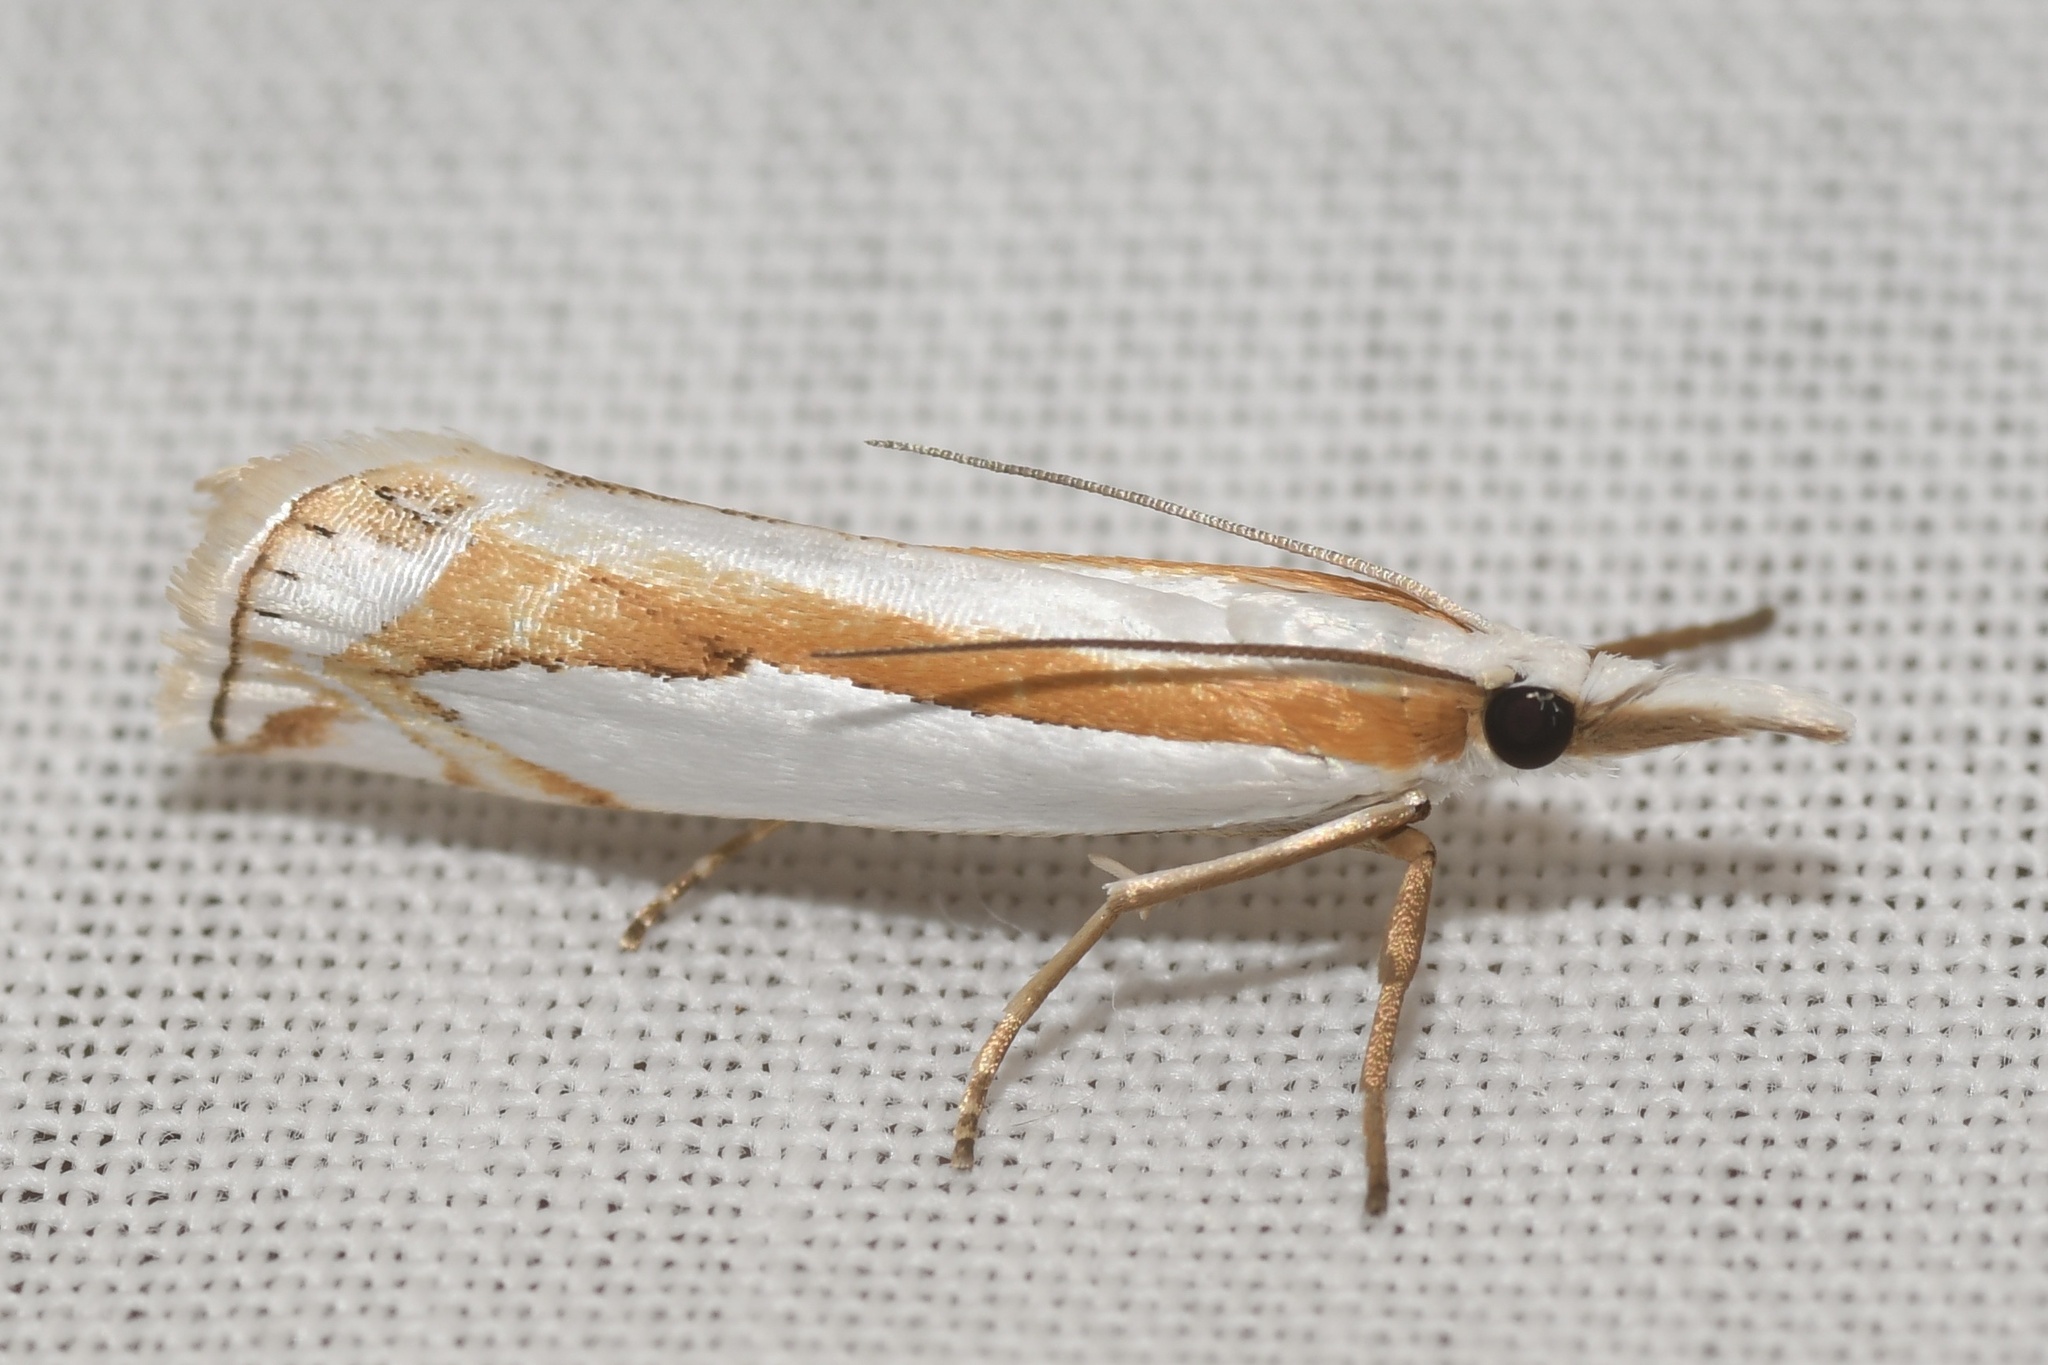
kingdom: Animalia
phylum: Arthropoda
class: Insecta
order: Lepidoptera
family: Crambidae
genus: Crambus
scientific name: Crambus girardellus
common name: Girard's grass-veneer
